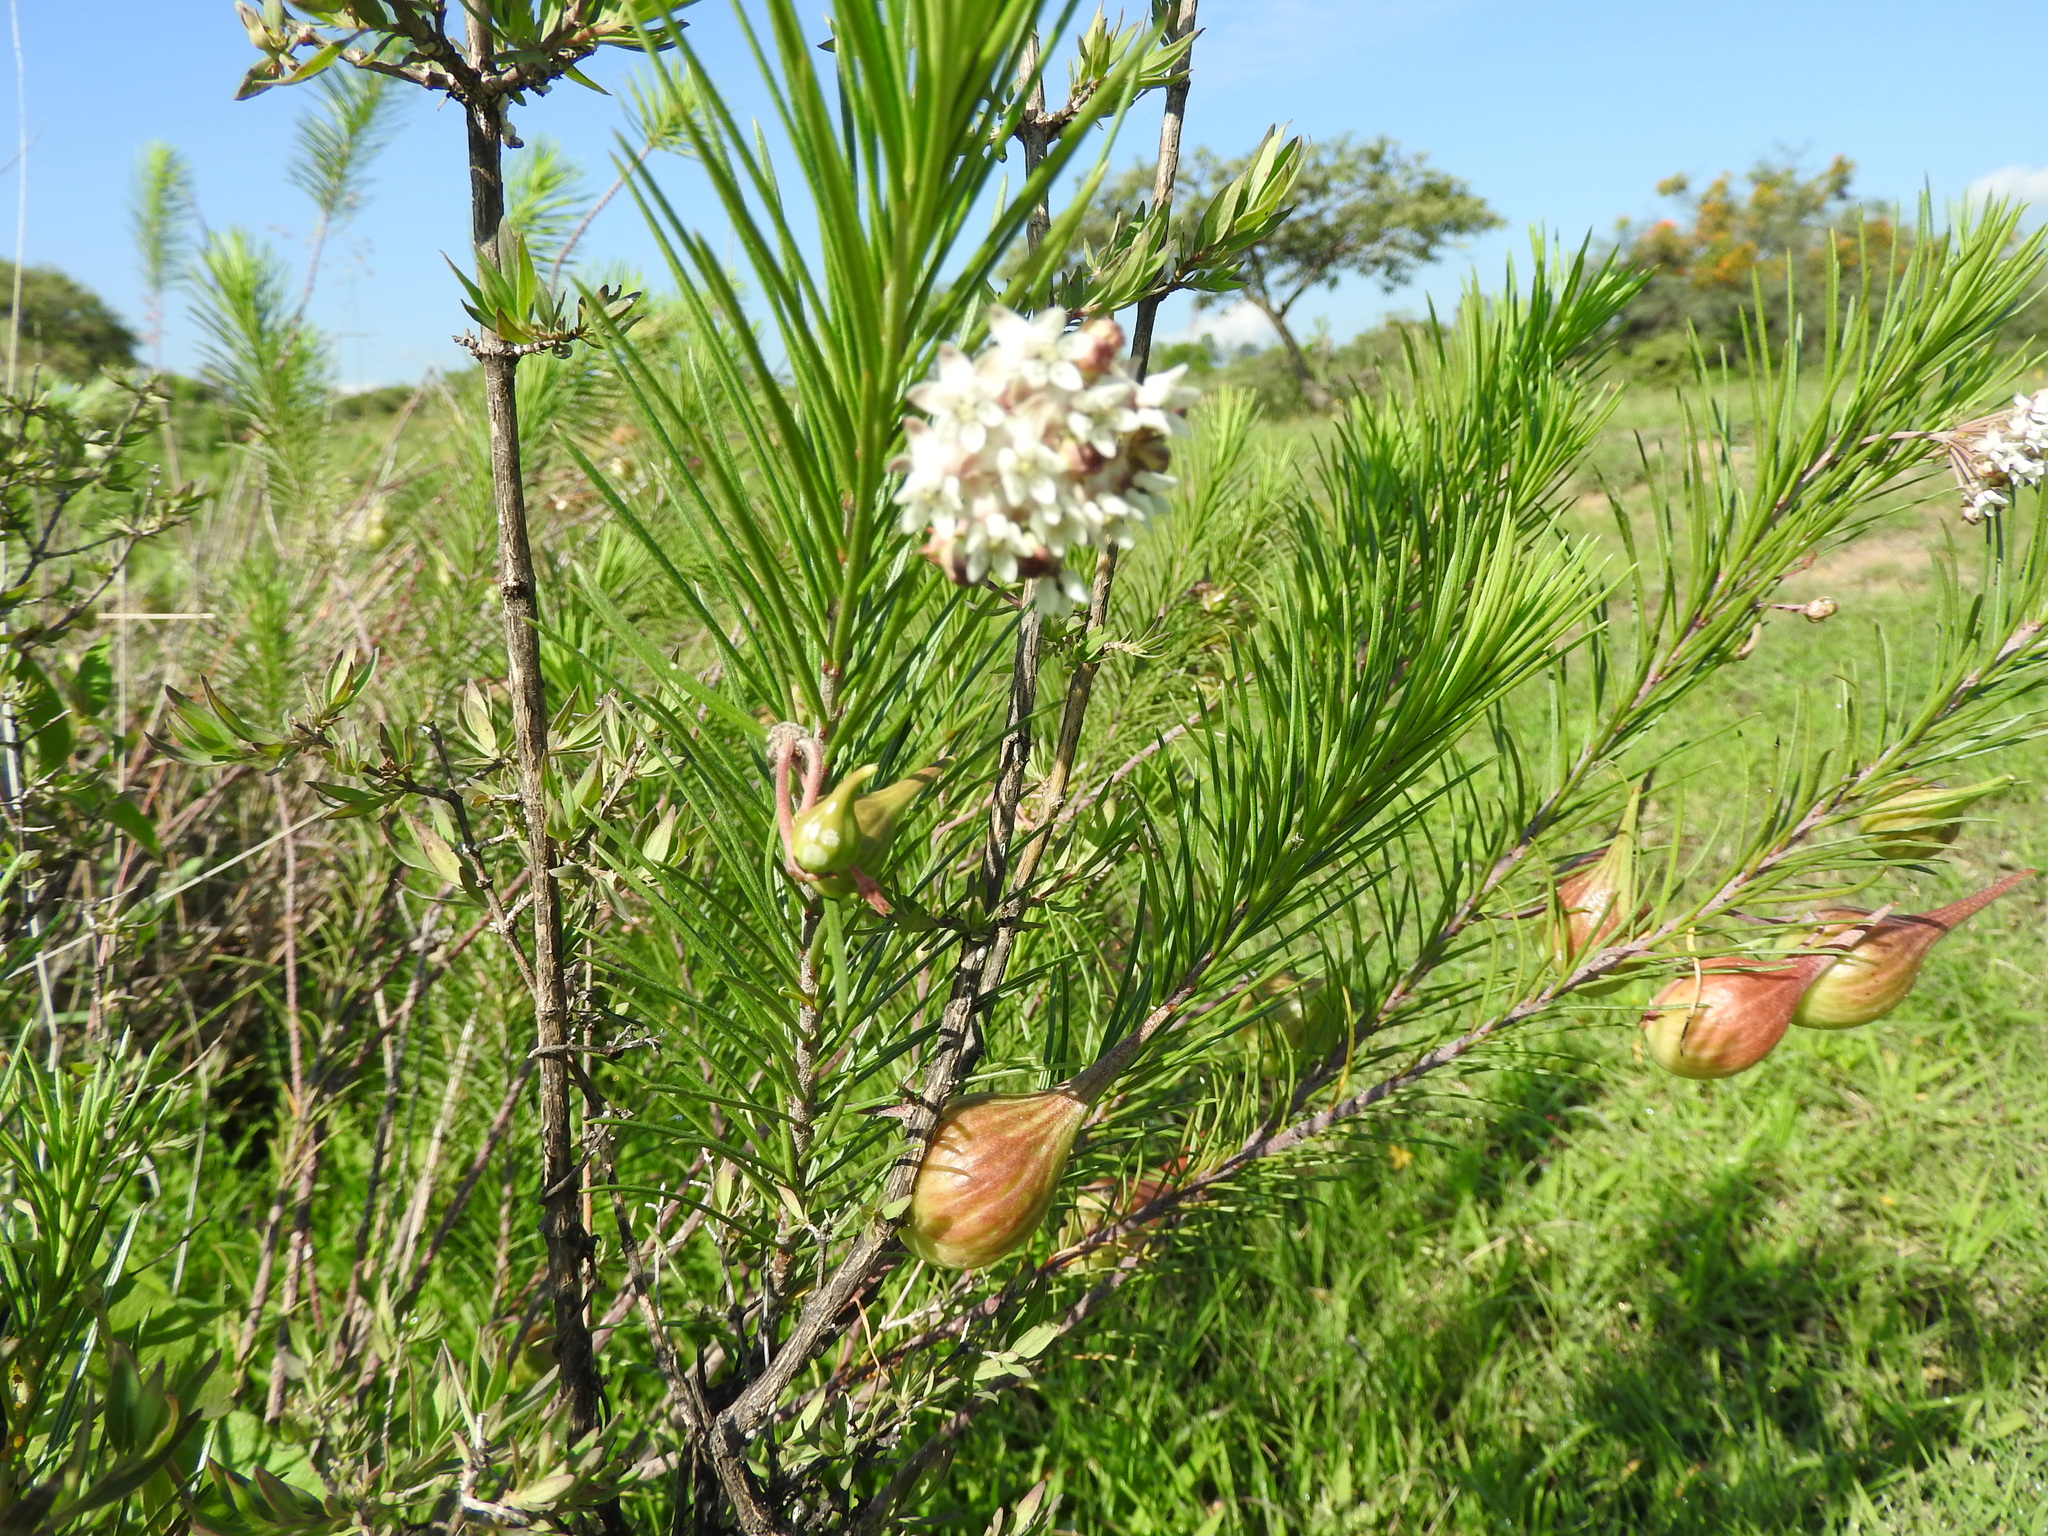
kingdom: Plantae
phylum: Tracheophyta
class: Magnoliopsida
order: Gentianales
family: Apocynaceae
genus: Asclepias
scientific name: Asclepias linaria
